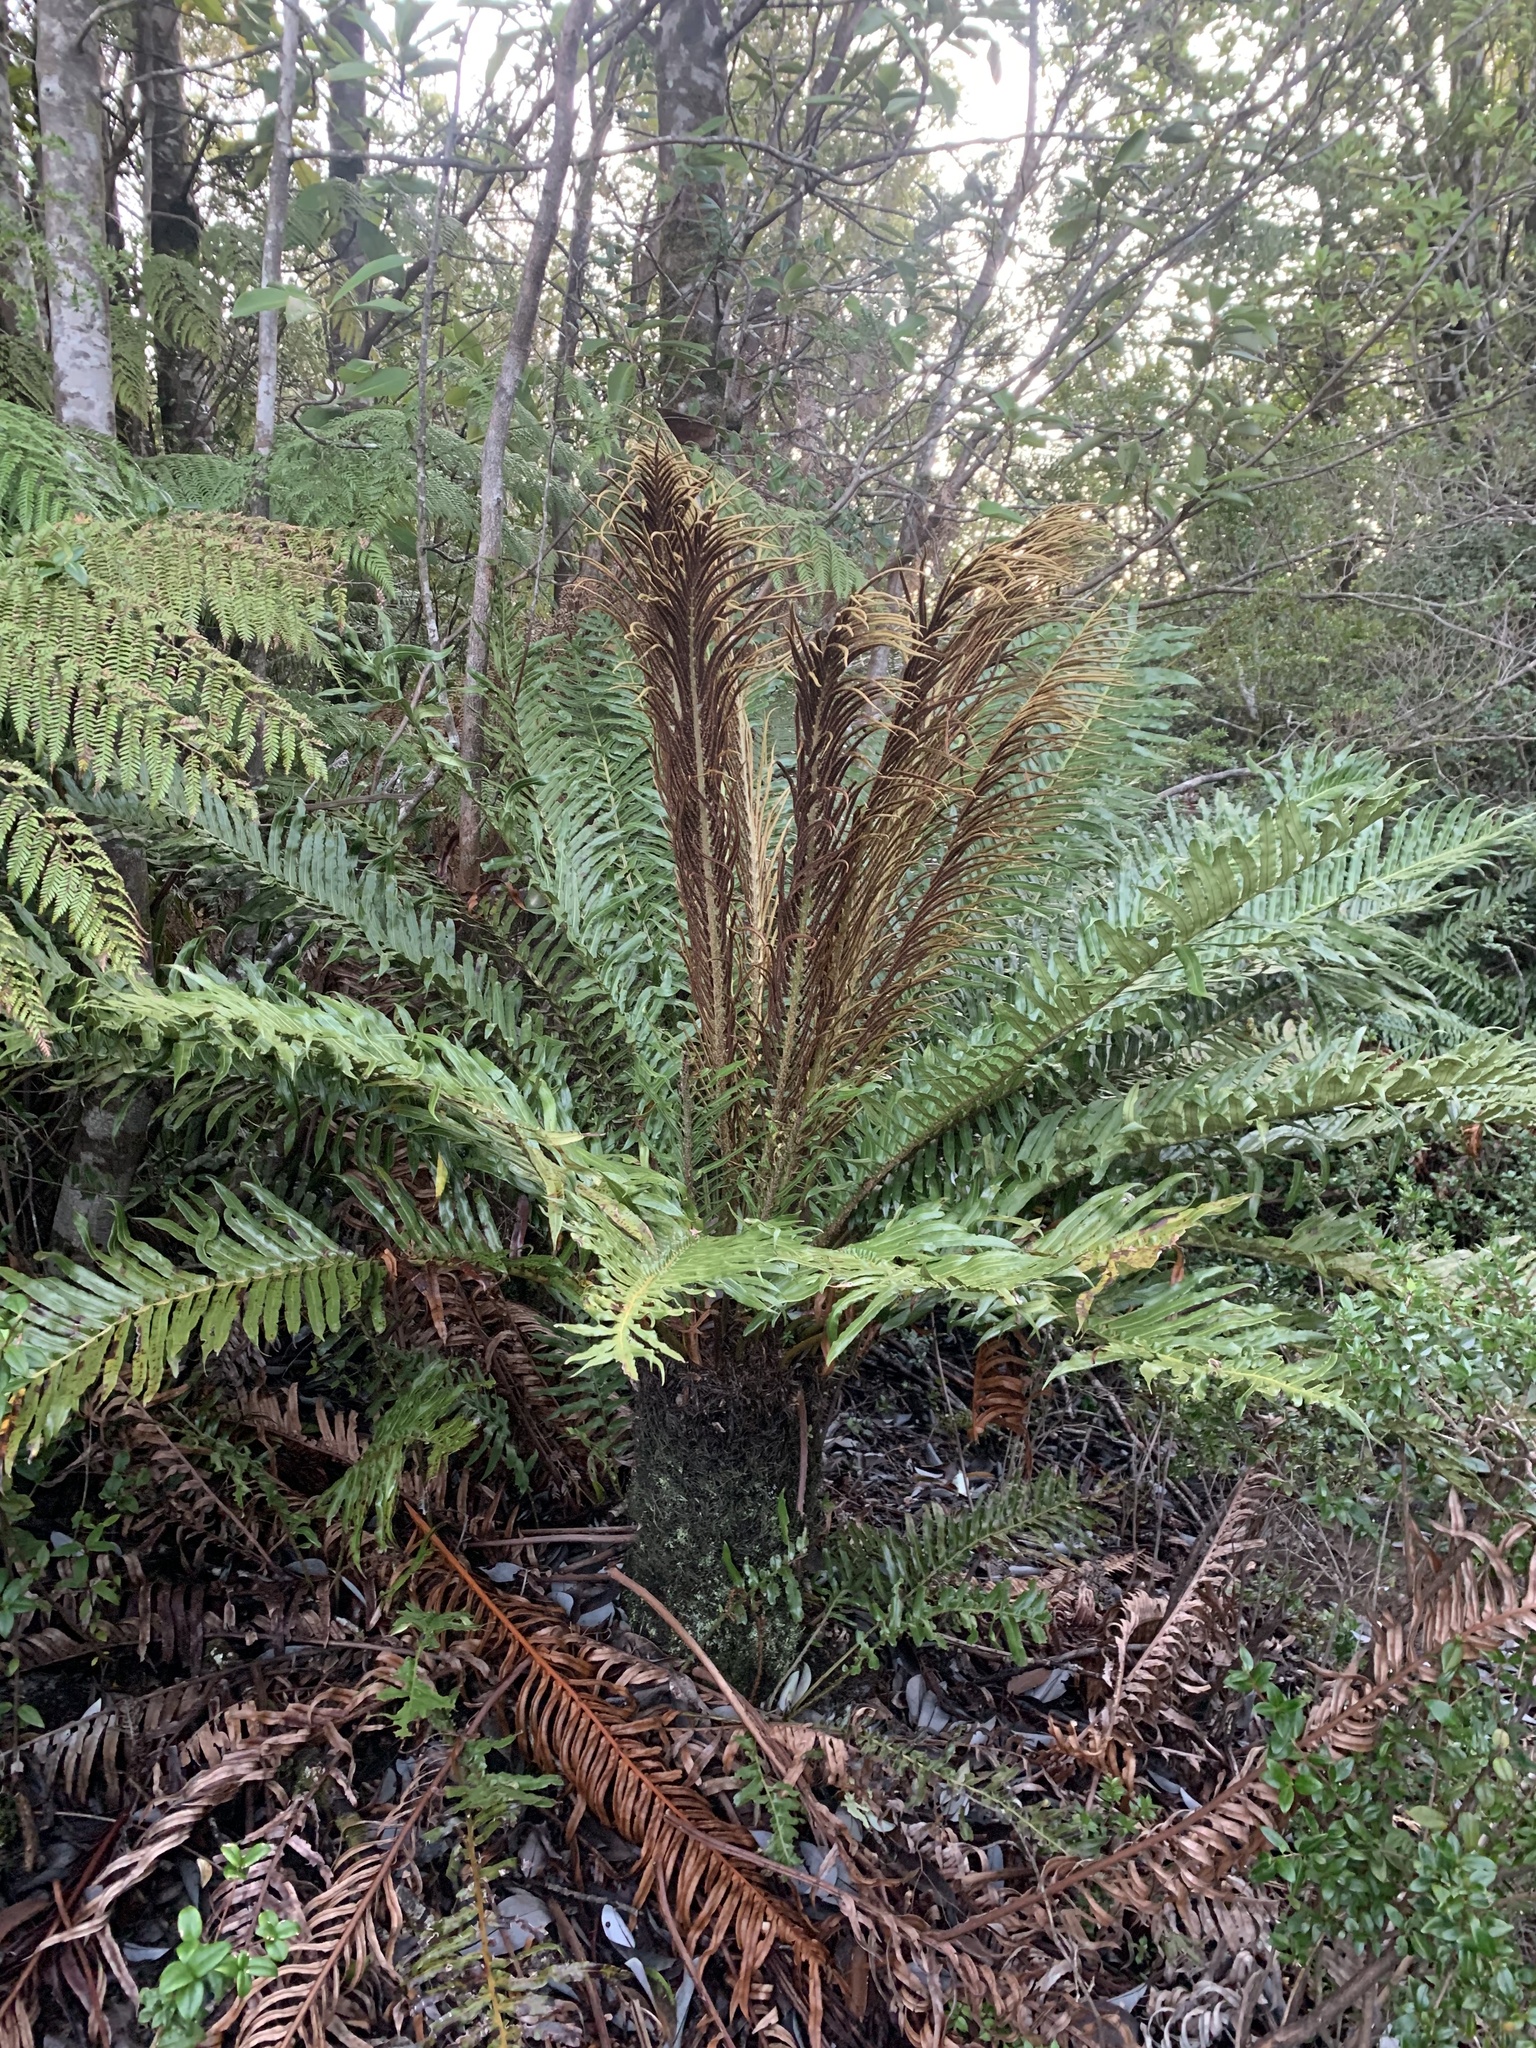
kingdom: Plantae
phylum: Tracheophyta
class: Polypodiopsida
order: Polypodiales
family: Blechnaceae
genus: Lomariocycas
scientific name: Lomariocycas magellanica
